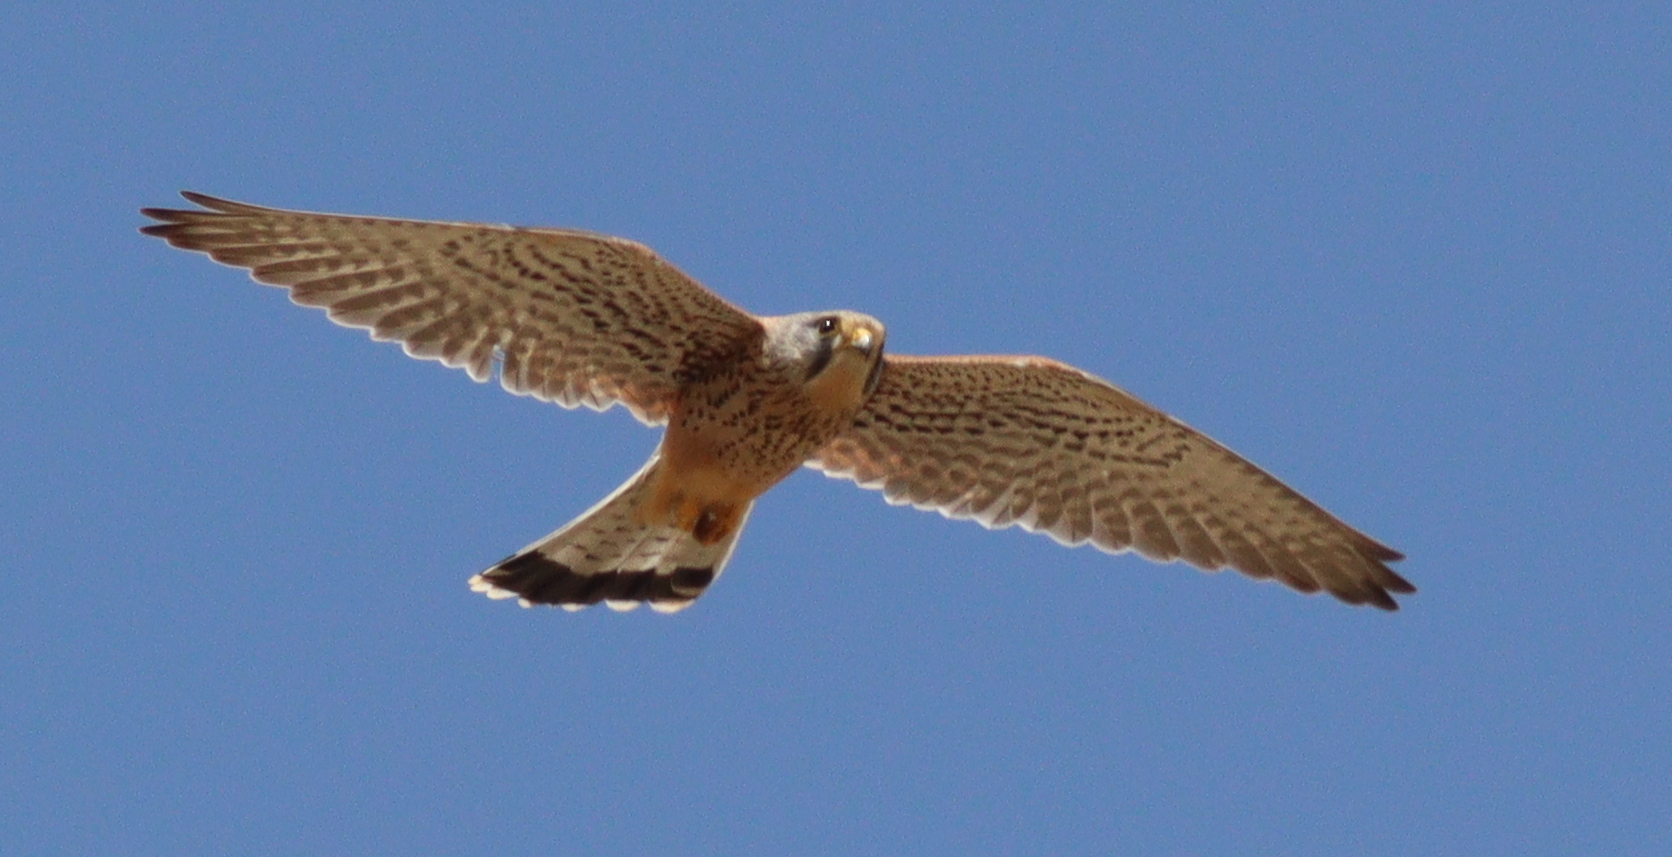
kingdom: Animalia
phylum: Chordata
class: Aves
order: Falconiformes
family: Falconidae
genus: Falco
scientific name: Falco tinnunculus
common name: Common kestrel
